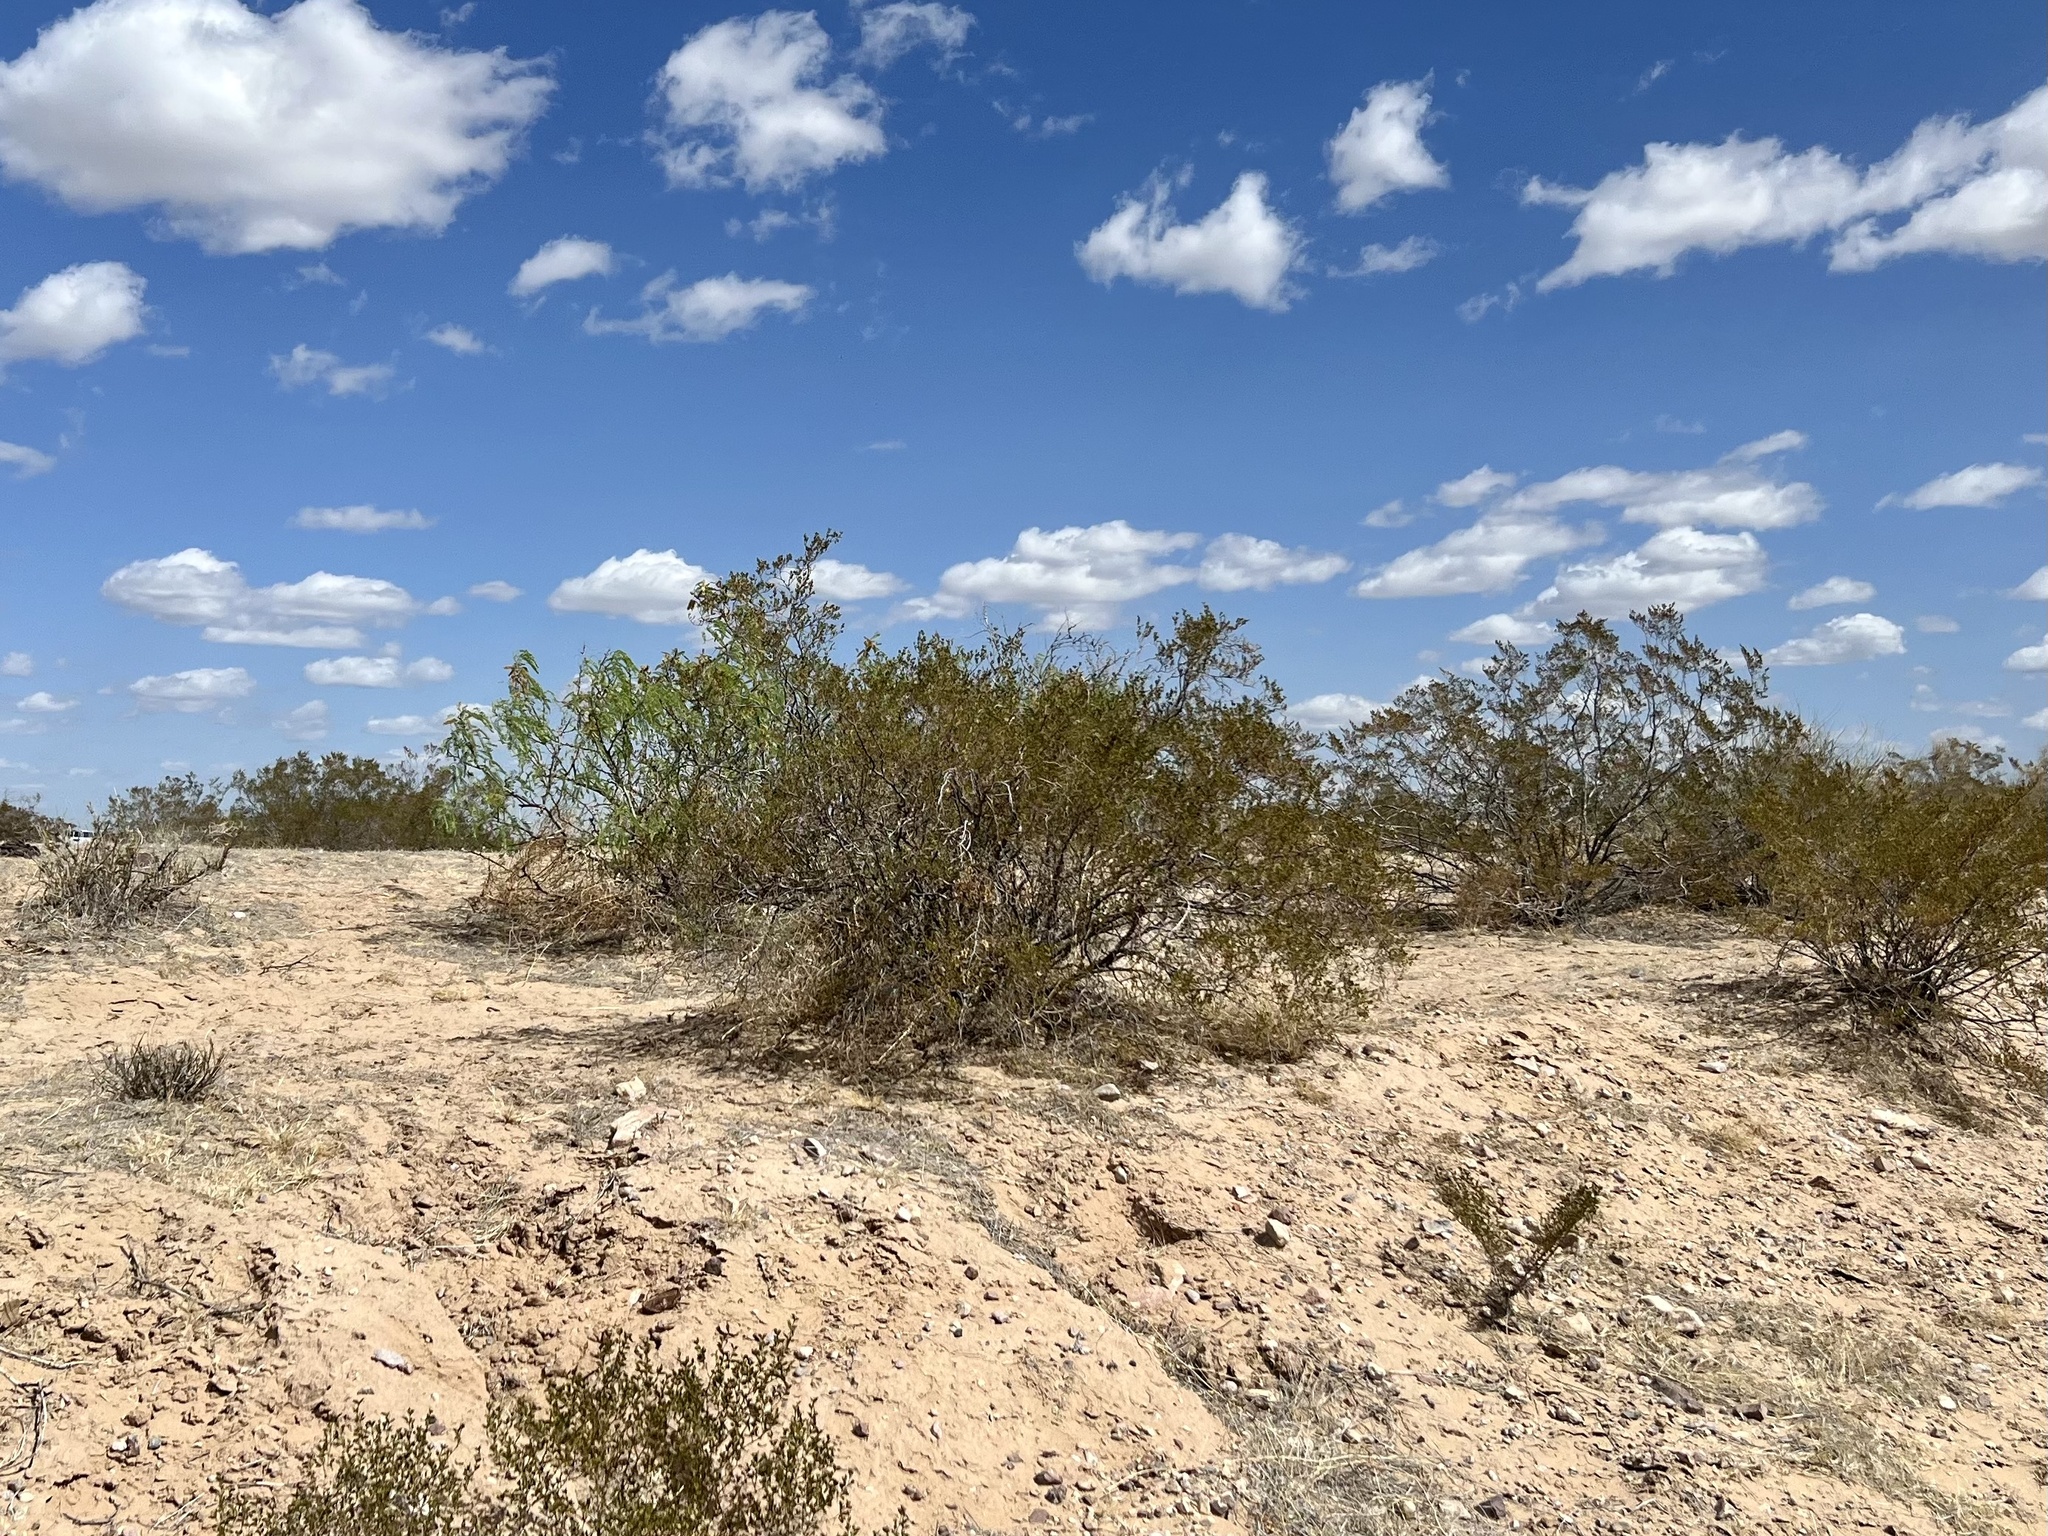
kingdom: Plantae
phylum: Tracheophyta
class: Magnoliopsida
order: Zygophyllales
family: Zygophyllaceae
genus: Larrea
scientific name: Larrea tridentata
